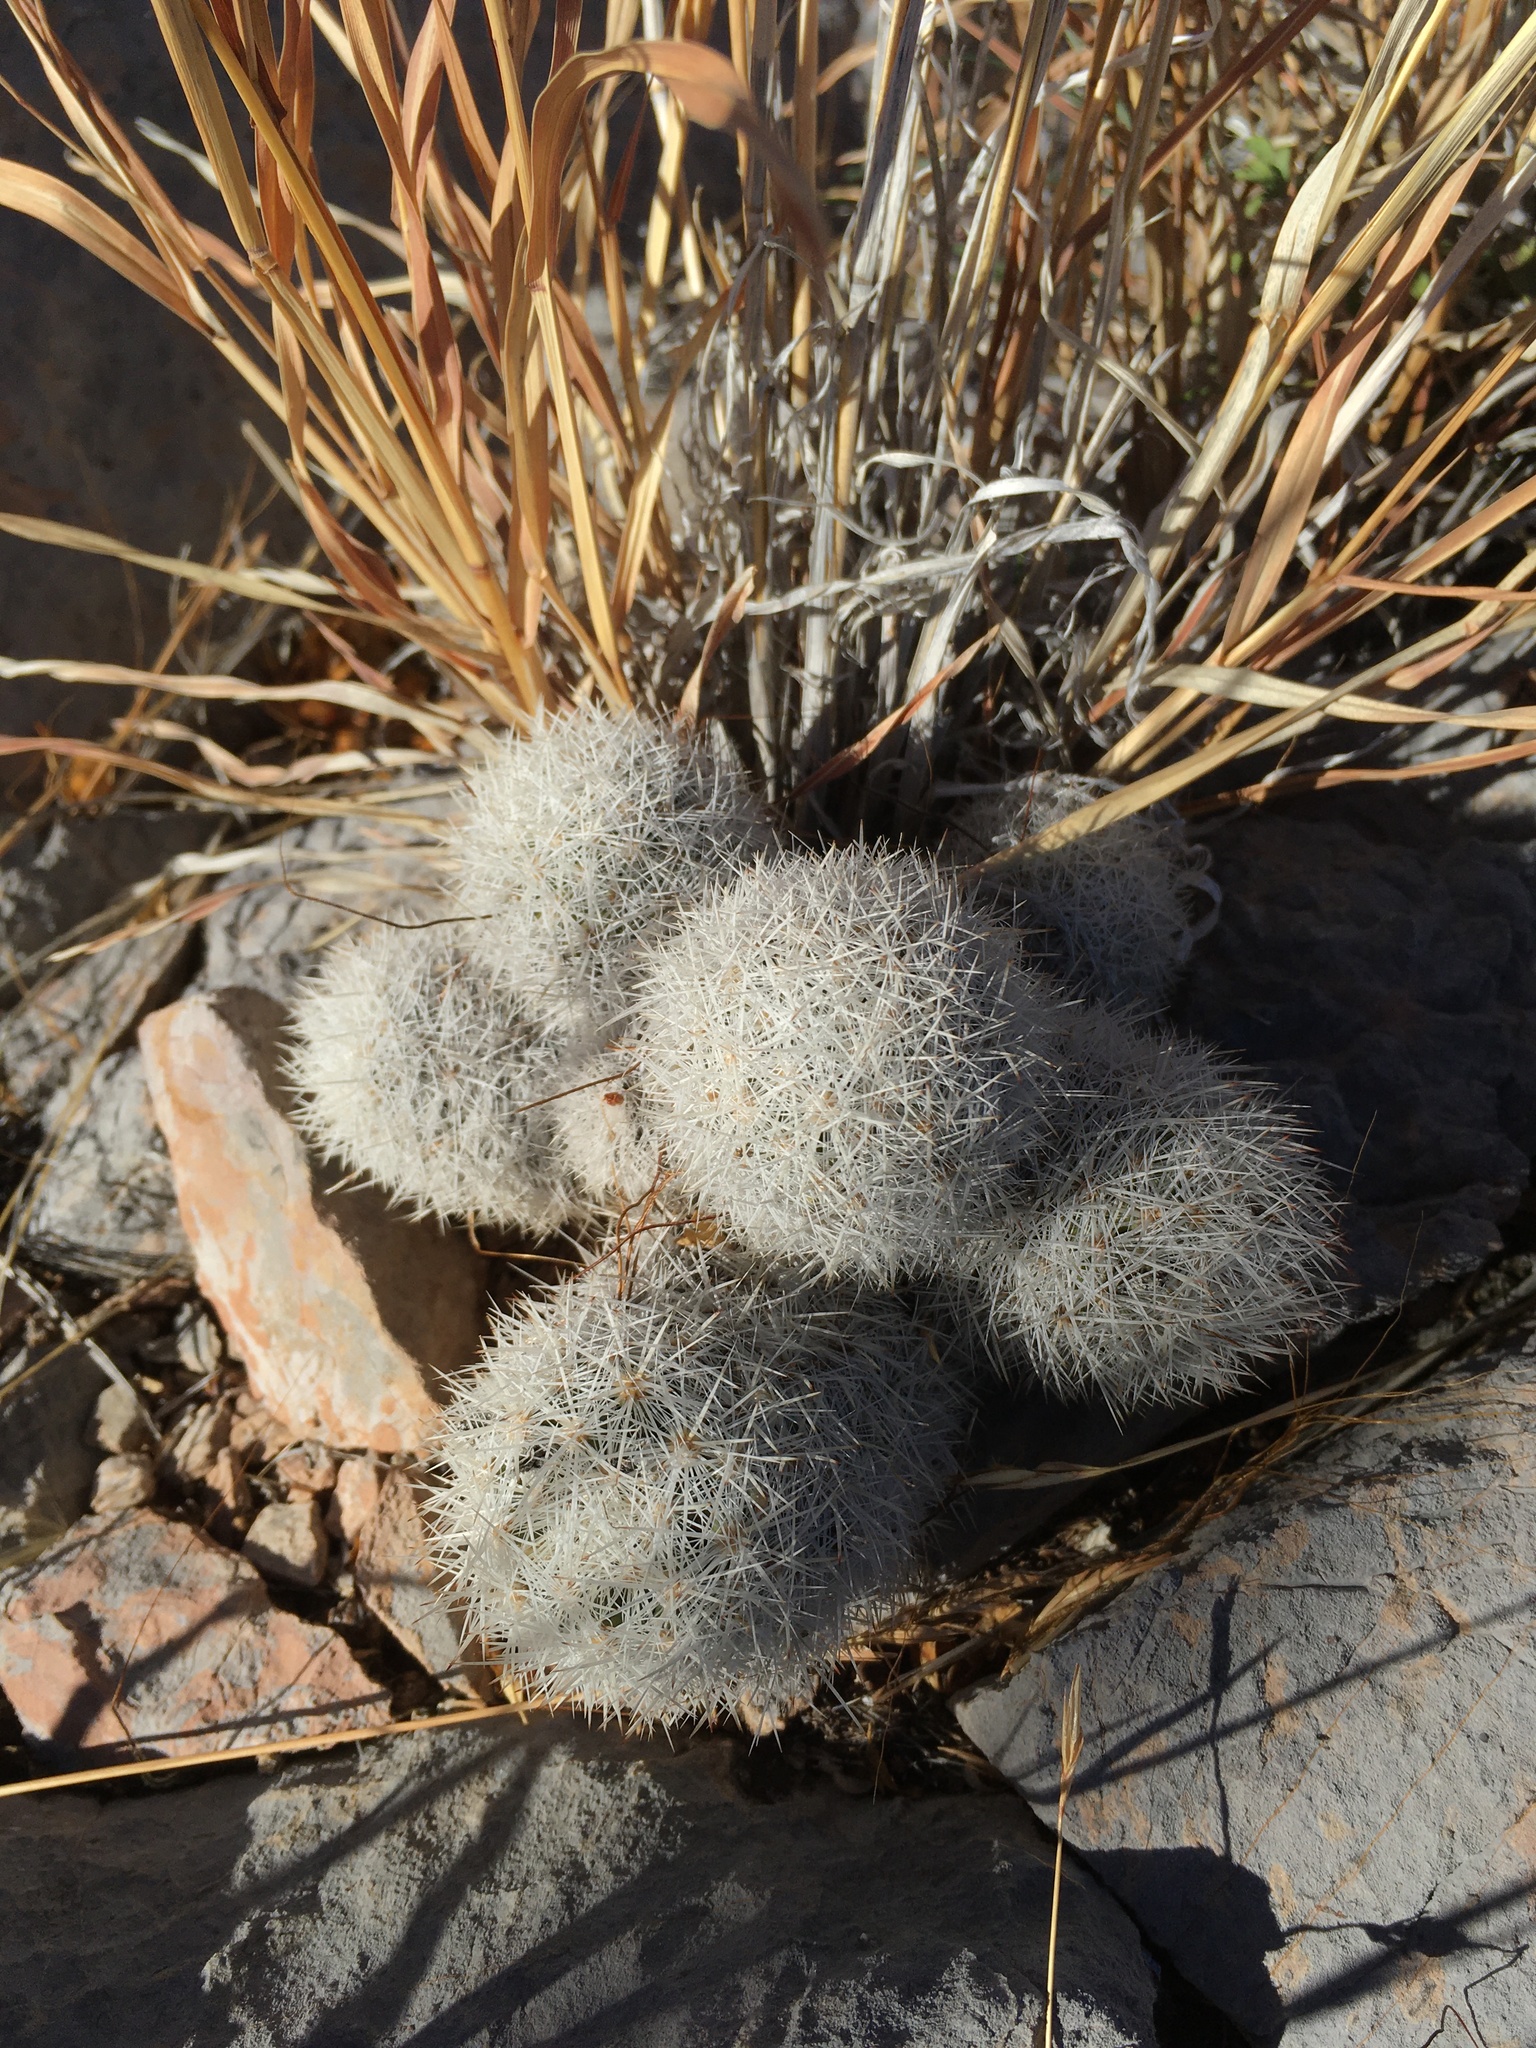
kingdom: Plantae
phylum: Tracheophyta
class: Magnoliopsida
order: Caryophyllales
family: Cactaceae
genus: Pelecyphora
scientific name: Pelecyphora sneedii
